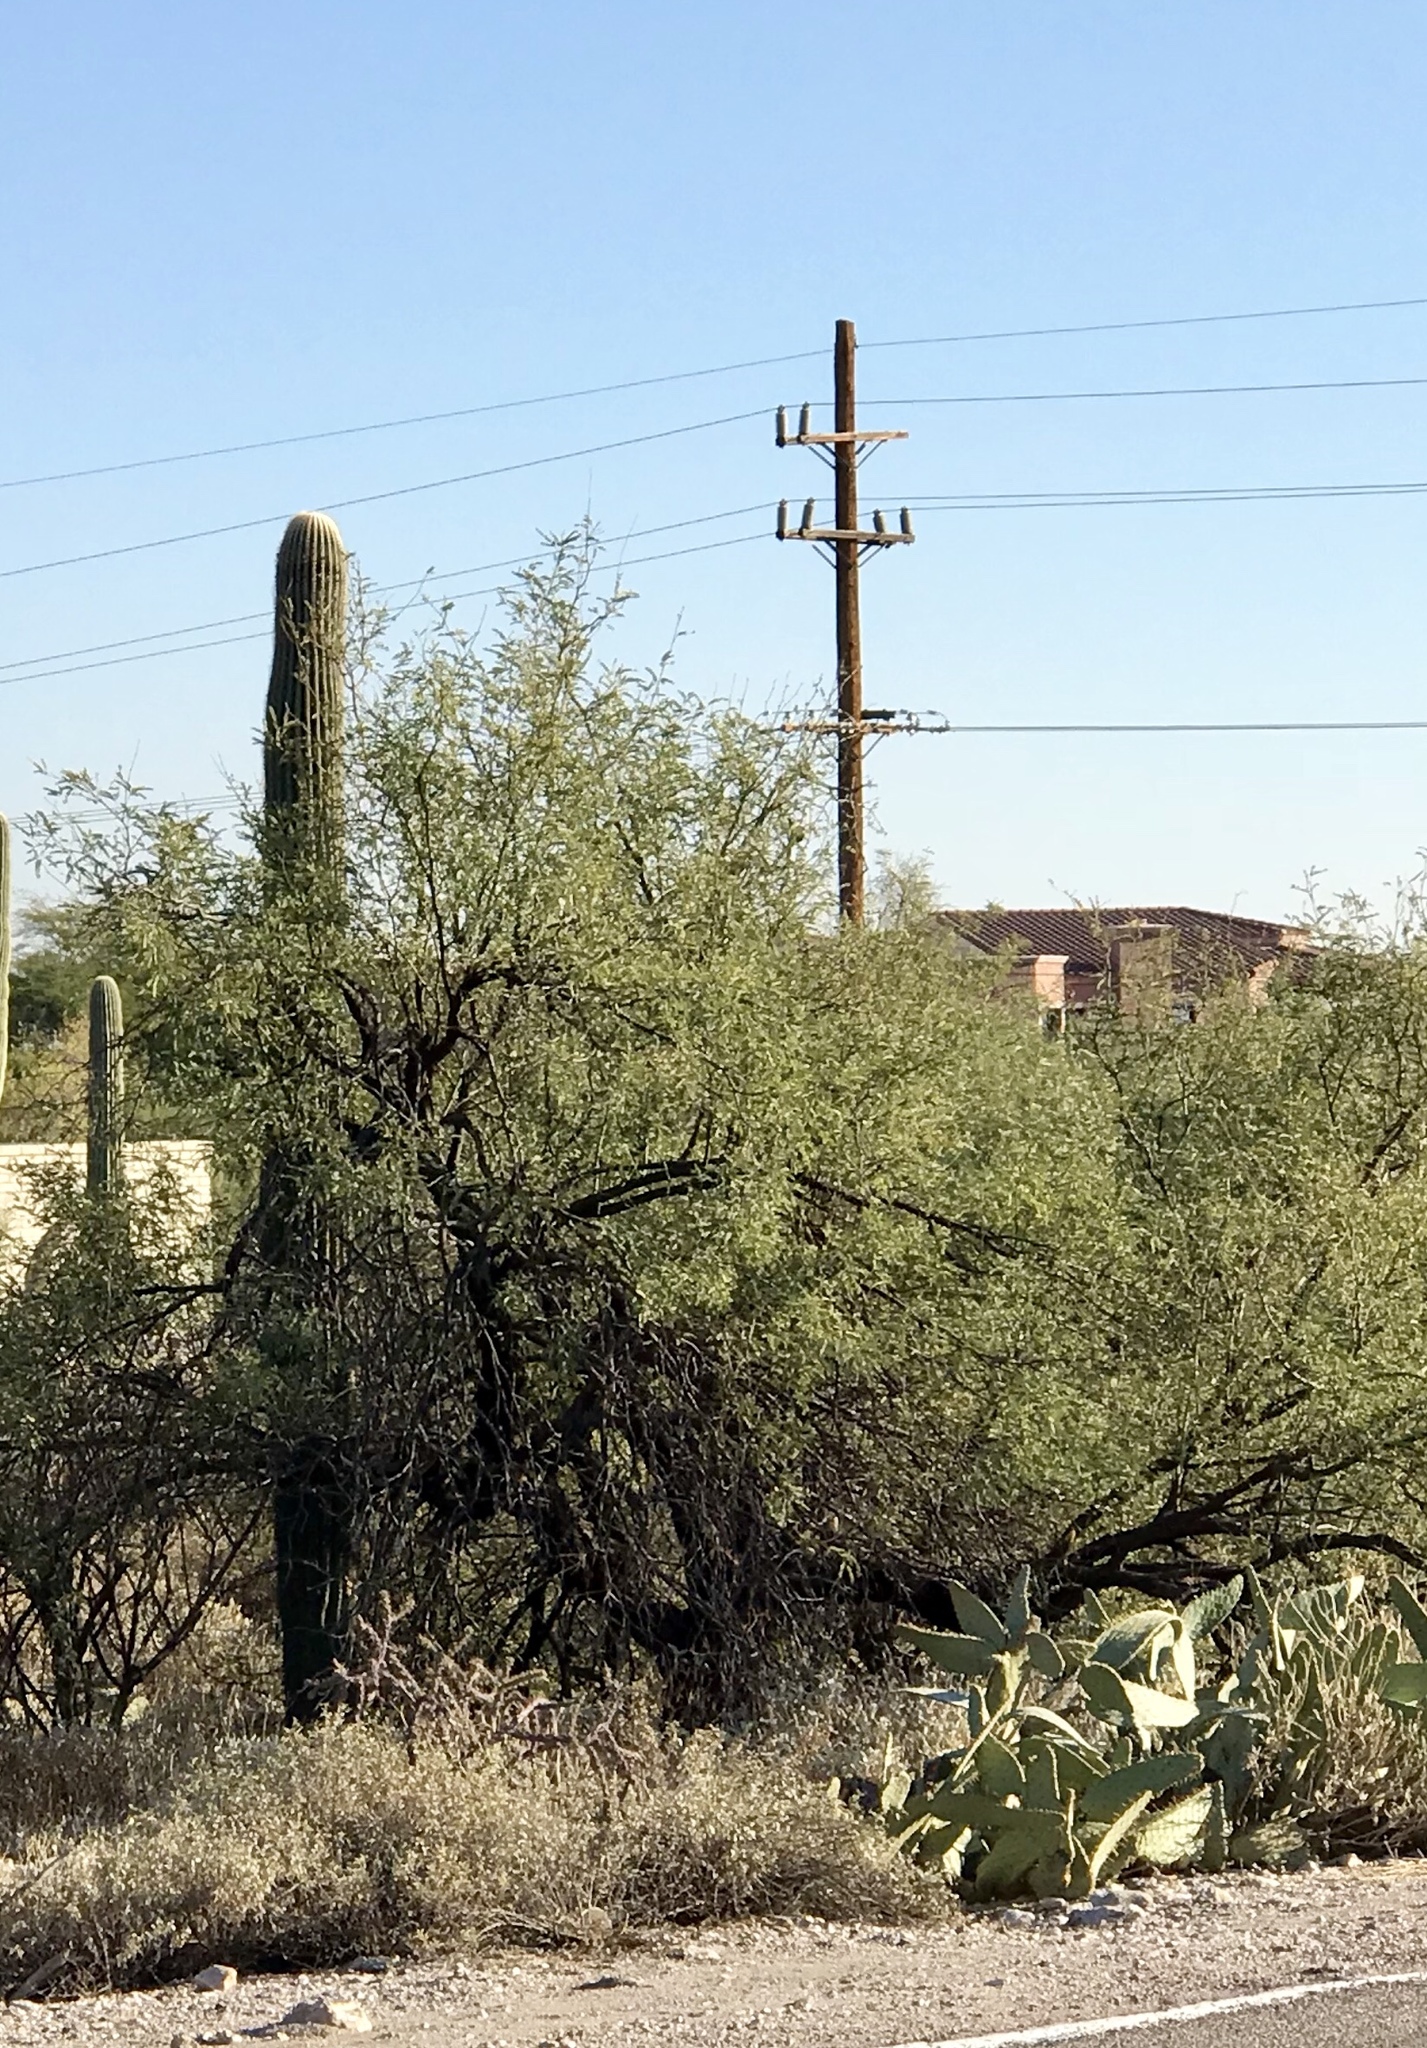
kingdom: Plantae
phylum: Tracheophyta
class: Magnoliopsida
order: Fabales
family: Fabaceae
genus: Prosopis
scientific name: Prosopis velutina
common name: Velvet mesquite
